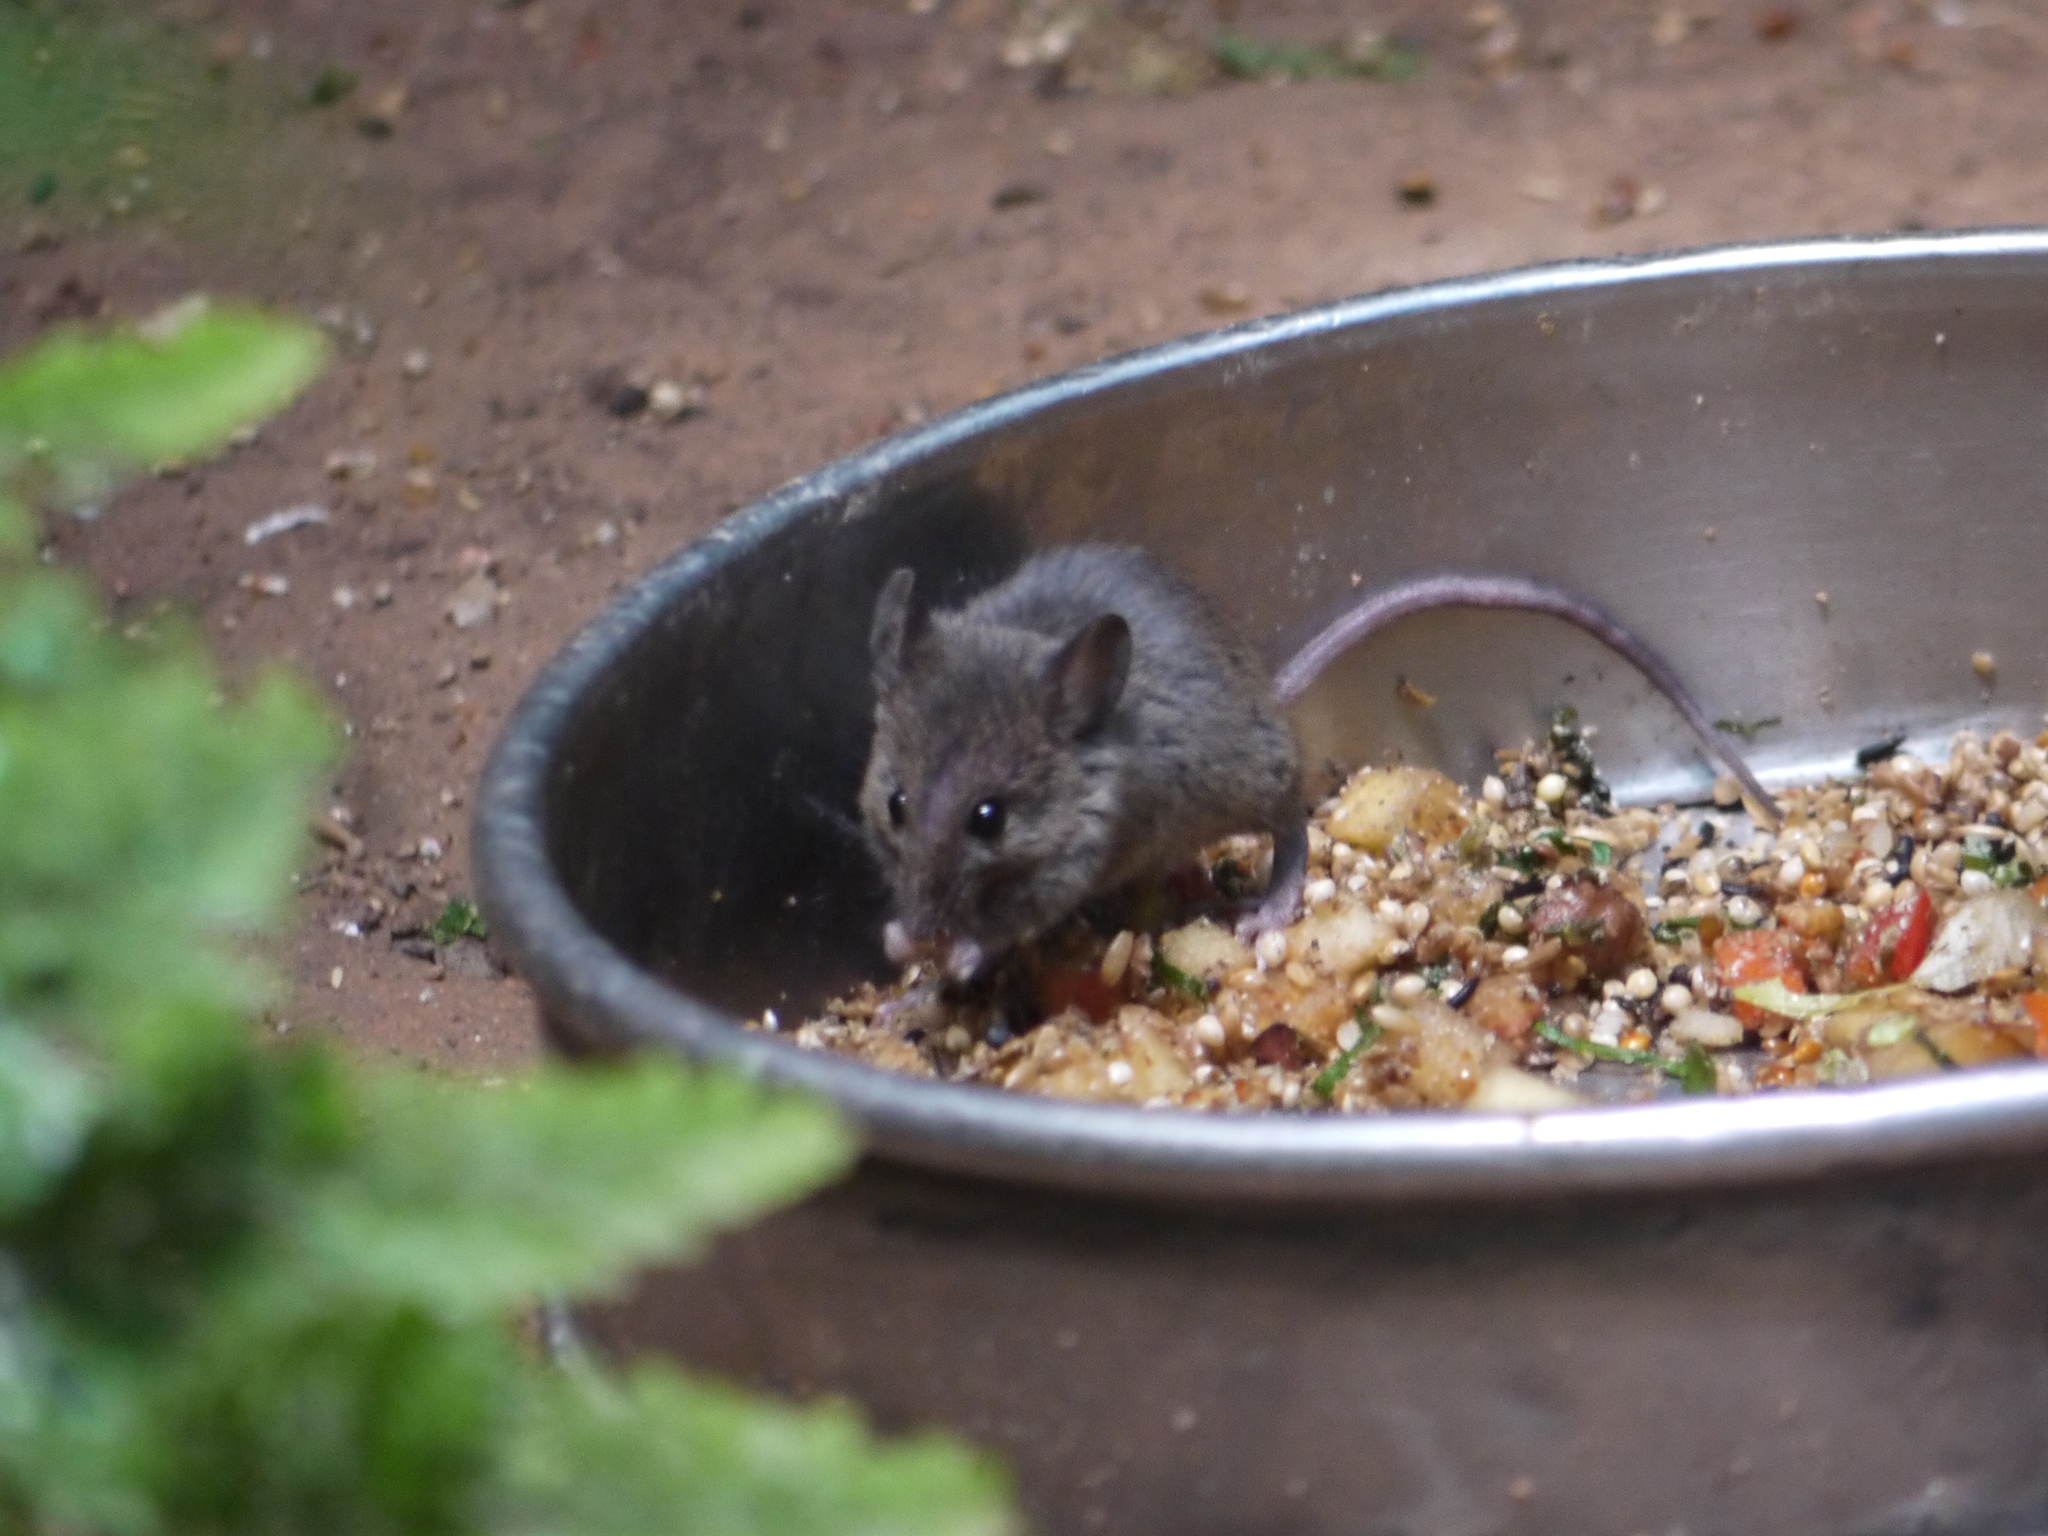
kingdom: Animalia
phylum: Chordata
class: Mammalia
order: Rodentia
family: Muridae
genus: Mus
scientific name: Mus musculus
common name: House mouse
